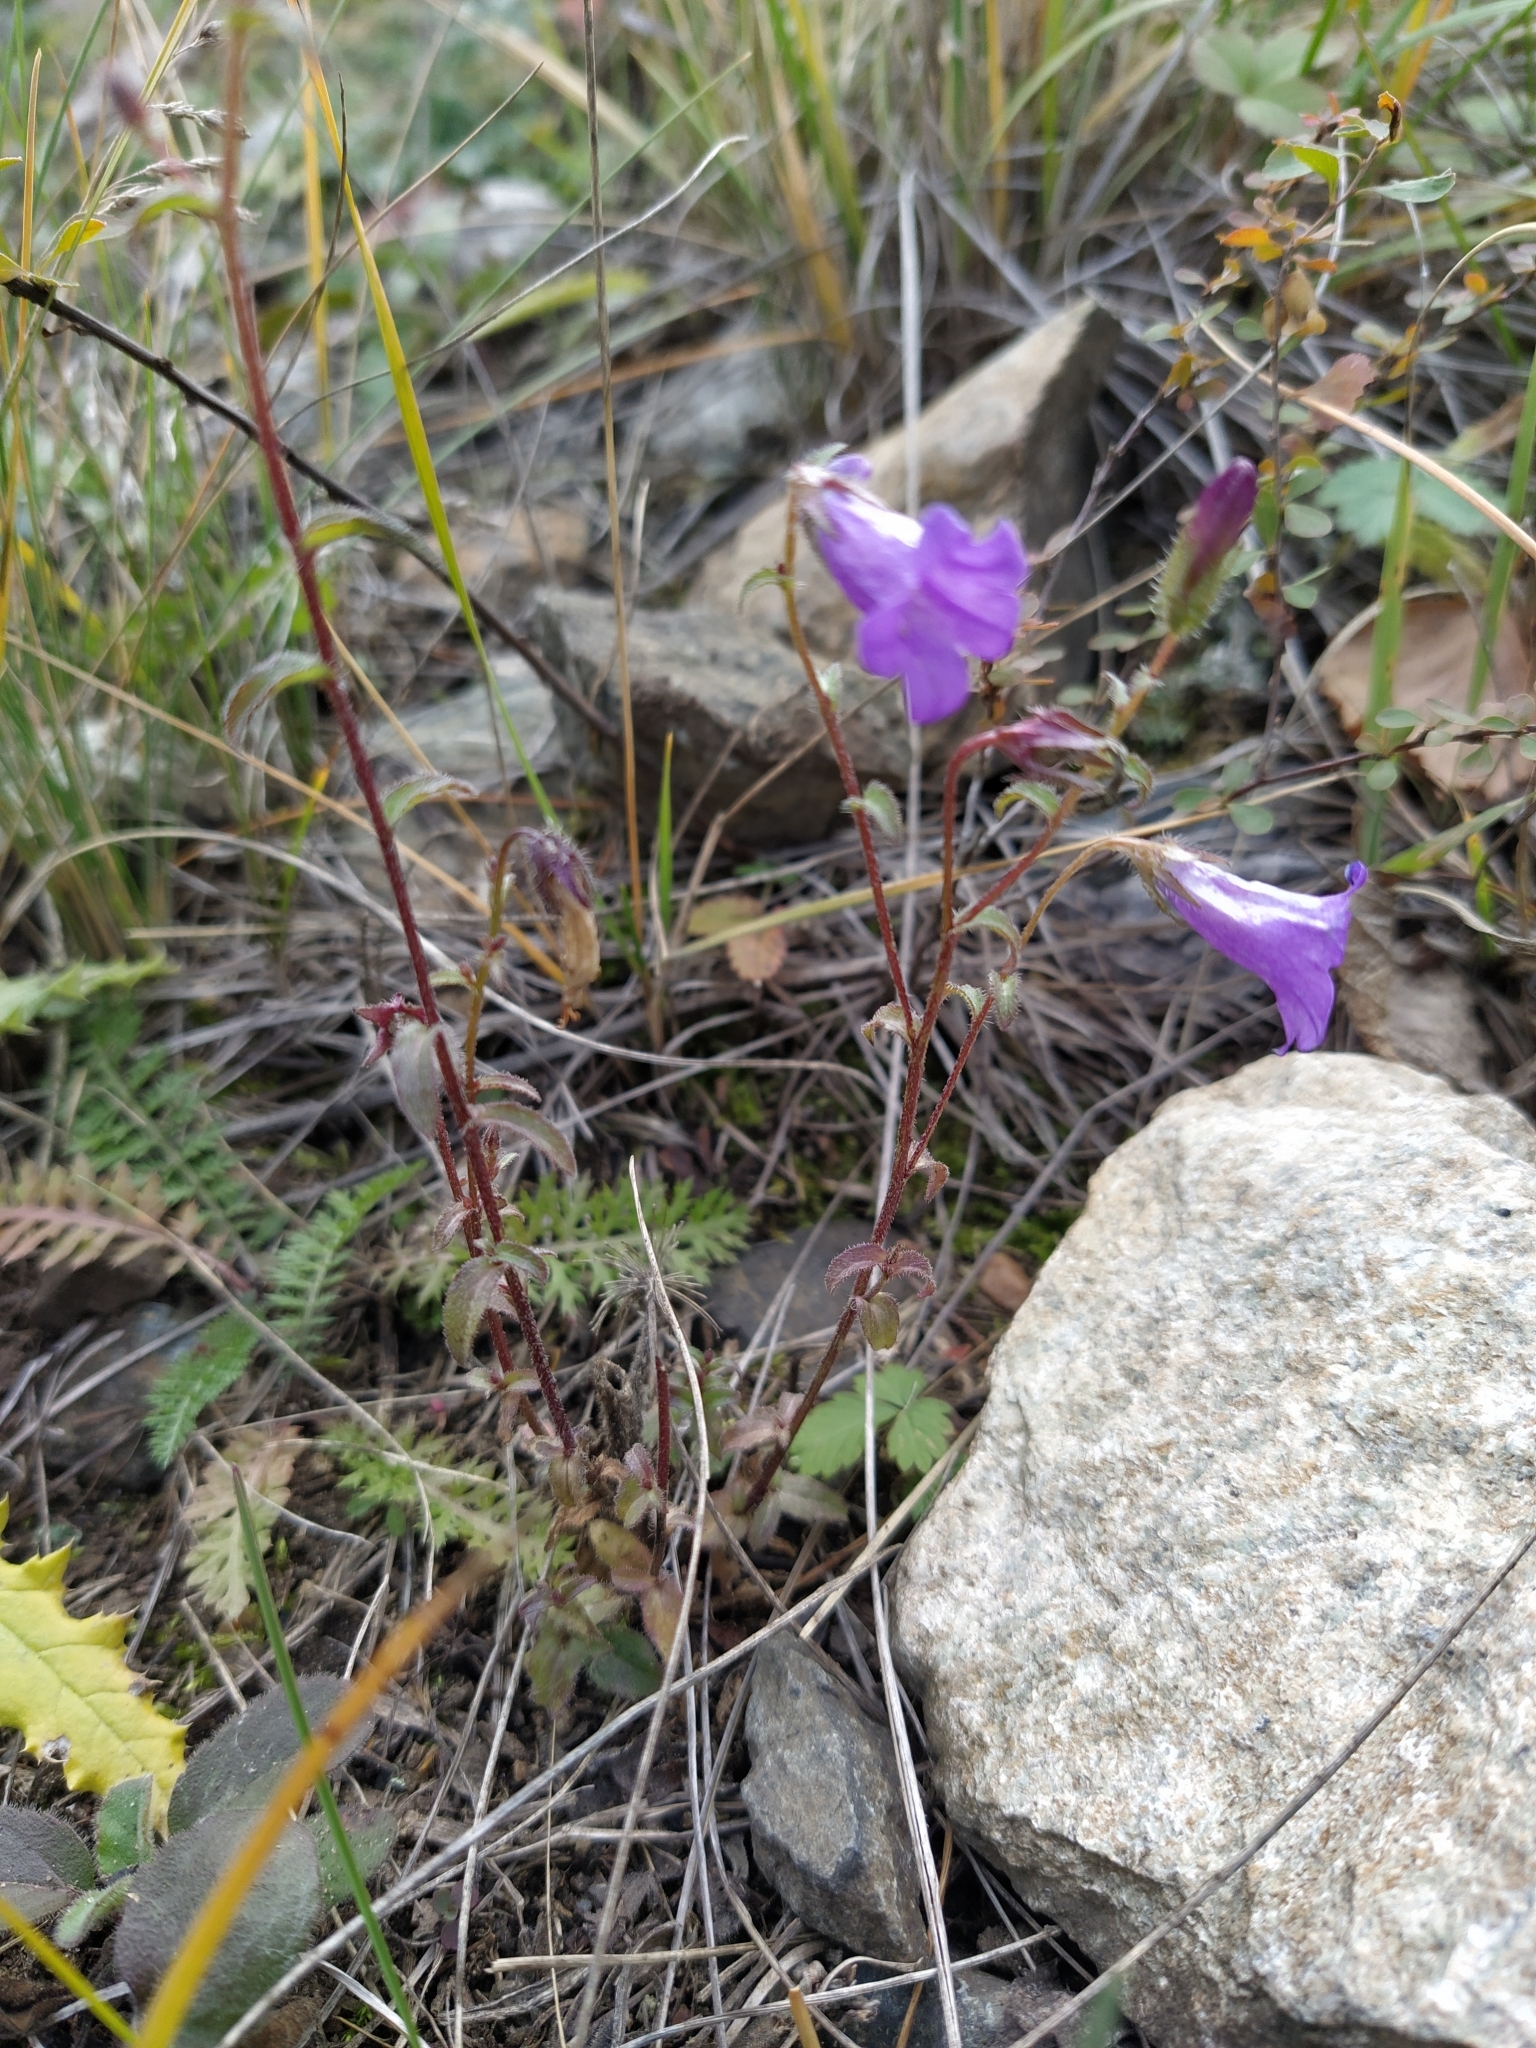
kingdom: Plantae
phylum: Tracheophyta
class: Magnoliopsida
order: Asterales
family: Campanulaceae
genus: Campanula
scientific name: Campanula sibirica
